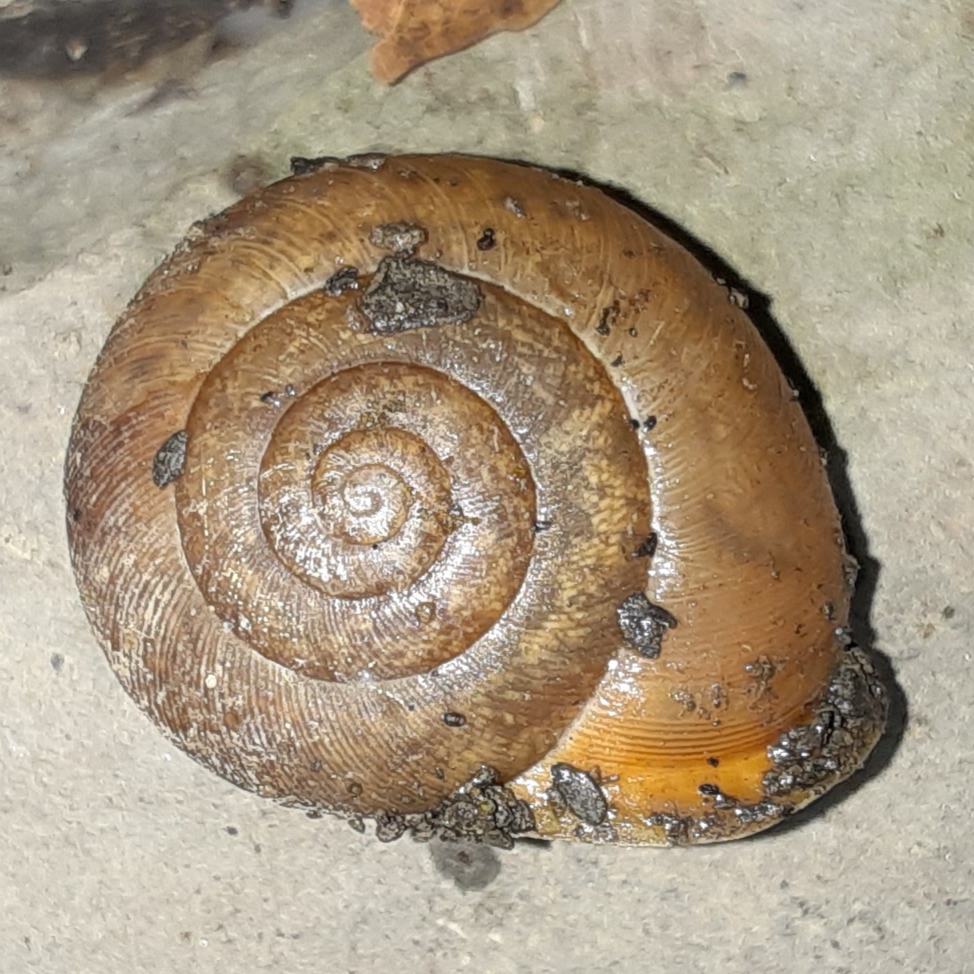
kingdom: Animalia
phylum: Mollusca
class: Gastropoda
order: Stylommatophora
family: Polygyridae
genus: Mesodon
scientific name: Mesodon thyroidus
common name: White-lip globe
